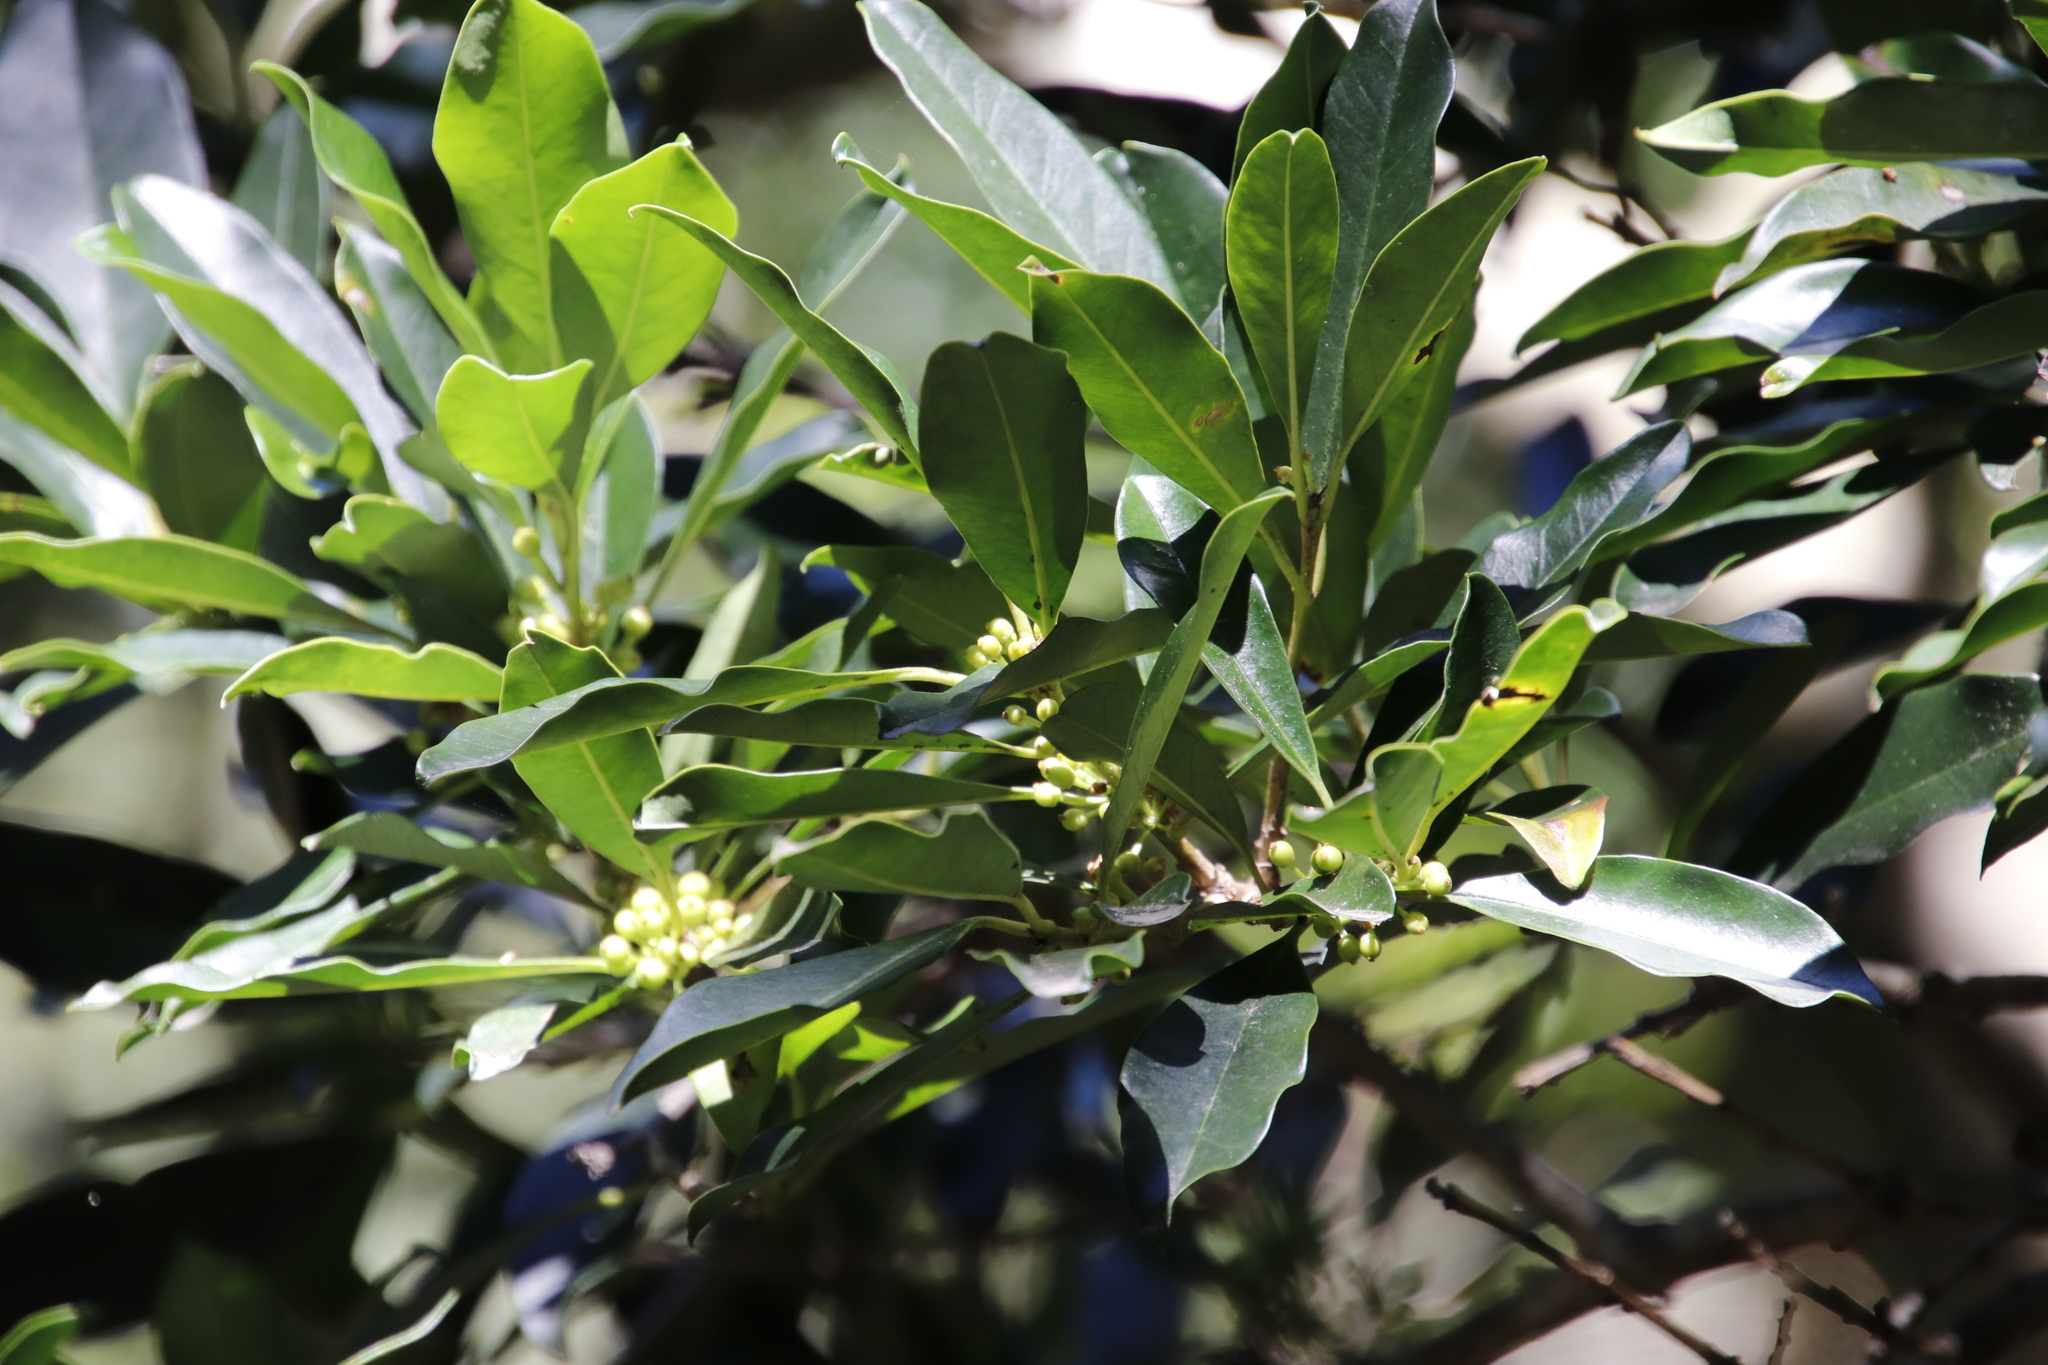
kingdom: Plantae
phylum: Tracheophyta
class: Magnoliopsida
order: Aquifoliales
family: Aquifoliaceae
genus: Ilex
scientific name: Ilex mitis
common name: African holly
